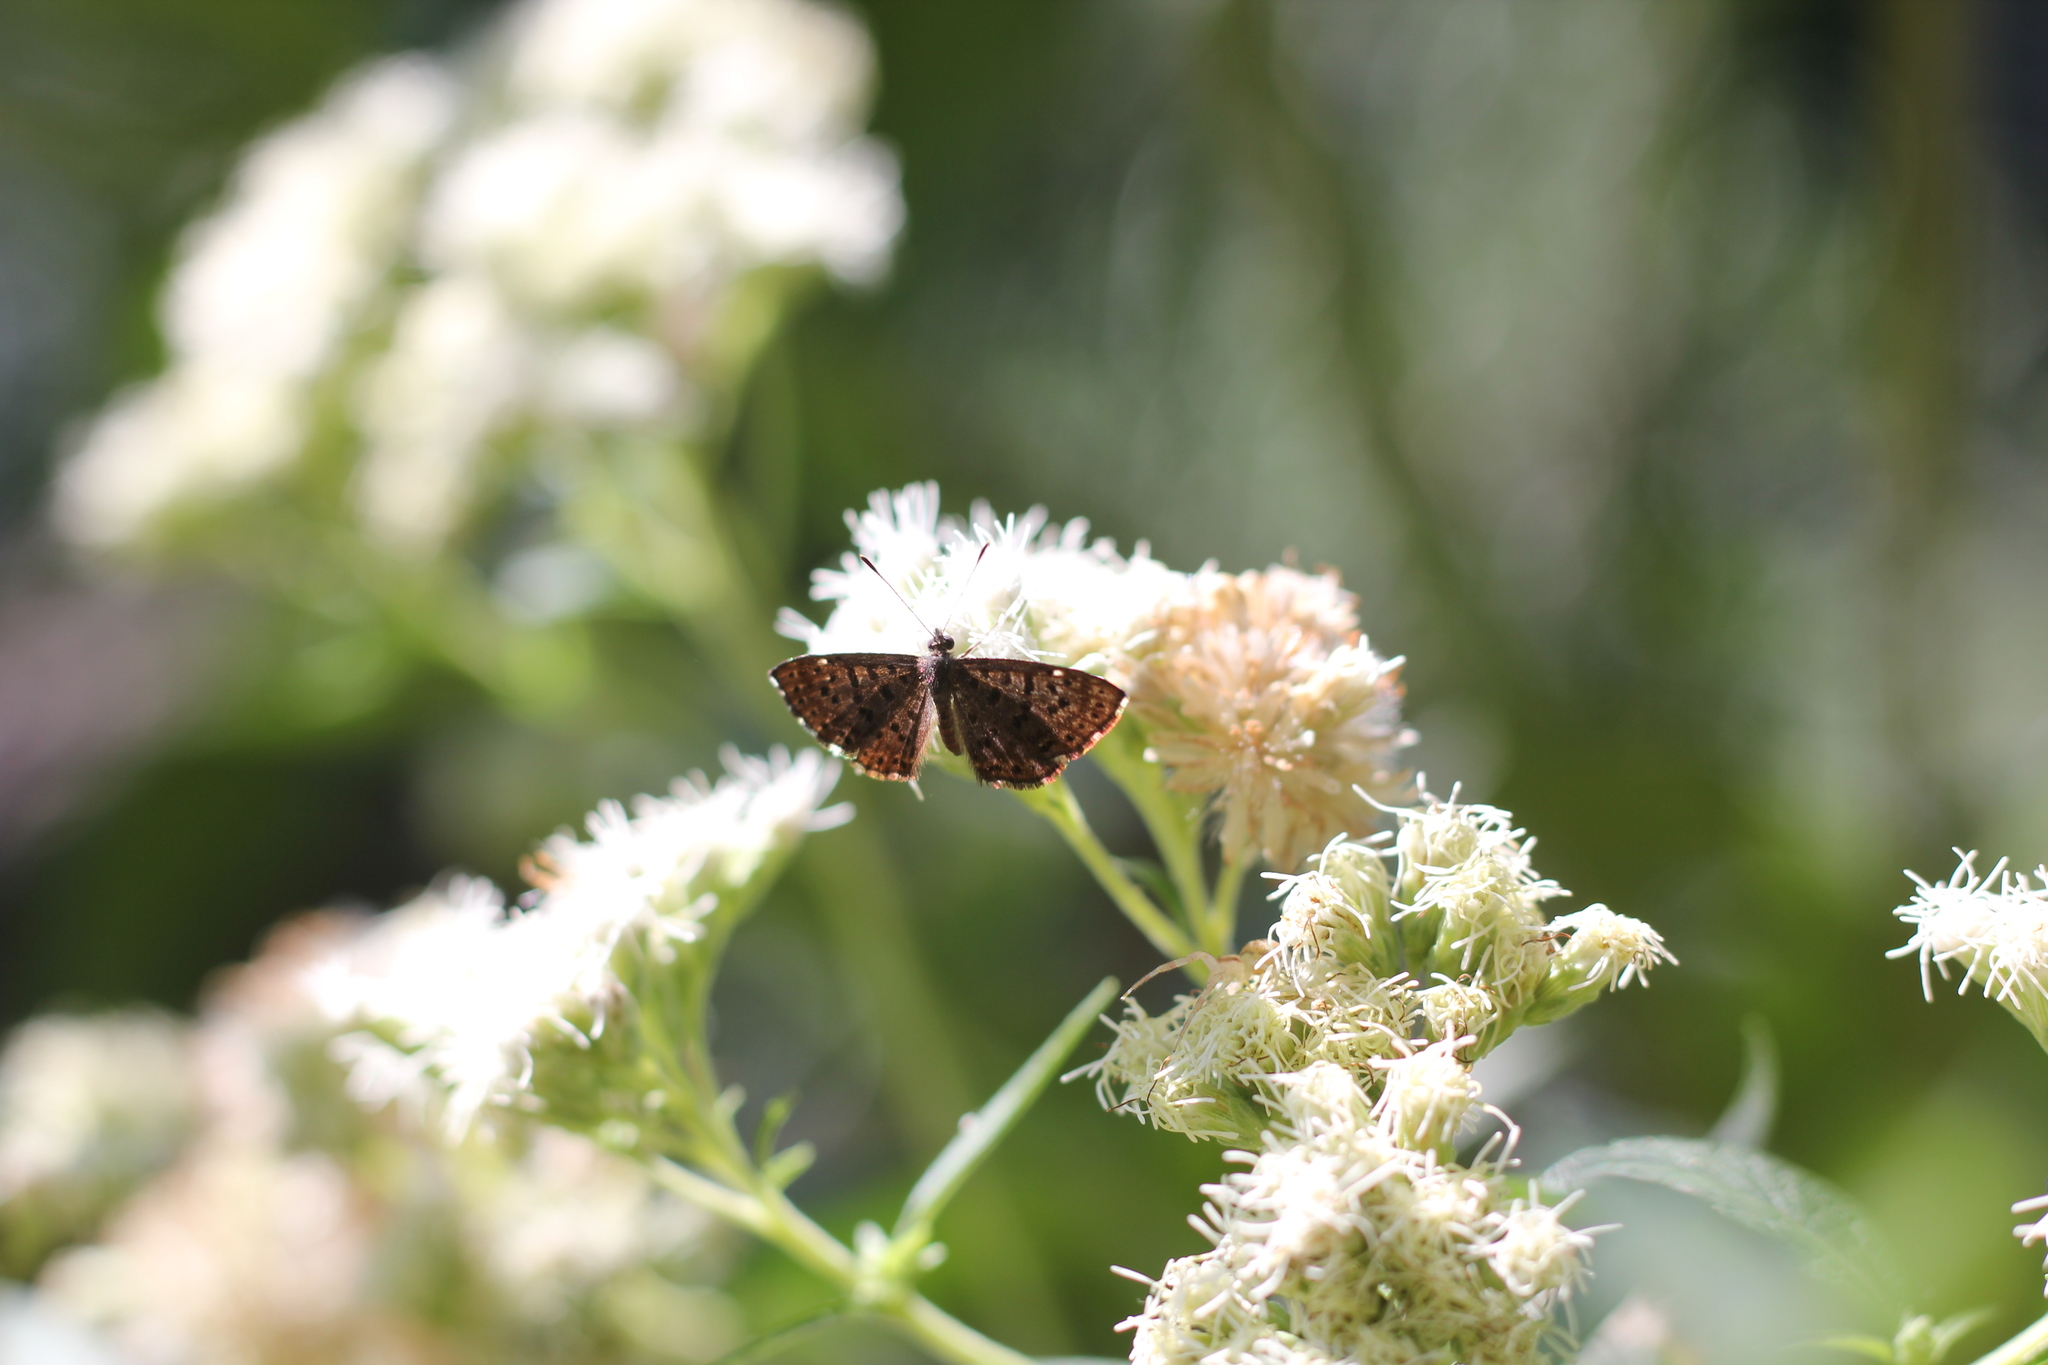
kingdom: Animalia
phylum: Arthropoda
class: Insecta
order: Lepidoptera
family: Riodinidae
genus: Teenie
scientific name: Teenie tinea
